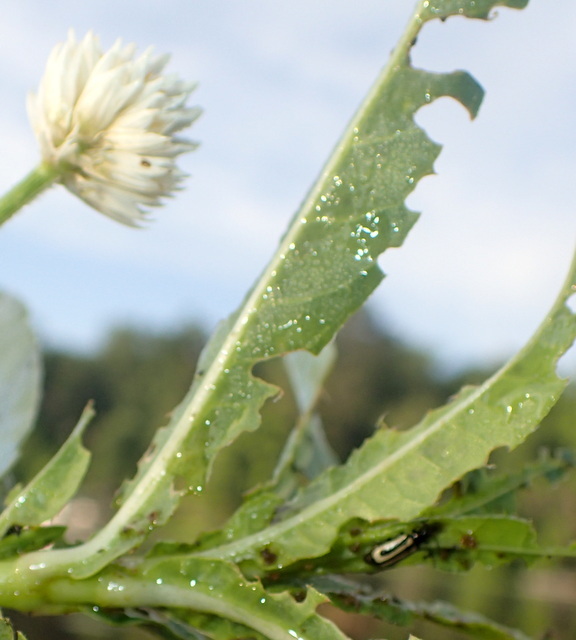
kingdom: Animalia
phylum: Arthropoda
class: Insecta
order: Coleoptera
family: Chrysomelidae
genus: Agasicles
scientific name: Agasicles hygrophila
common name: Alligatorweed flea beetle
